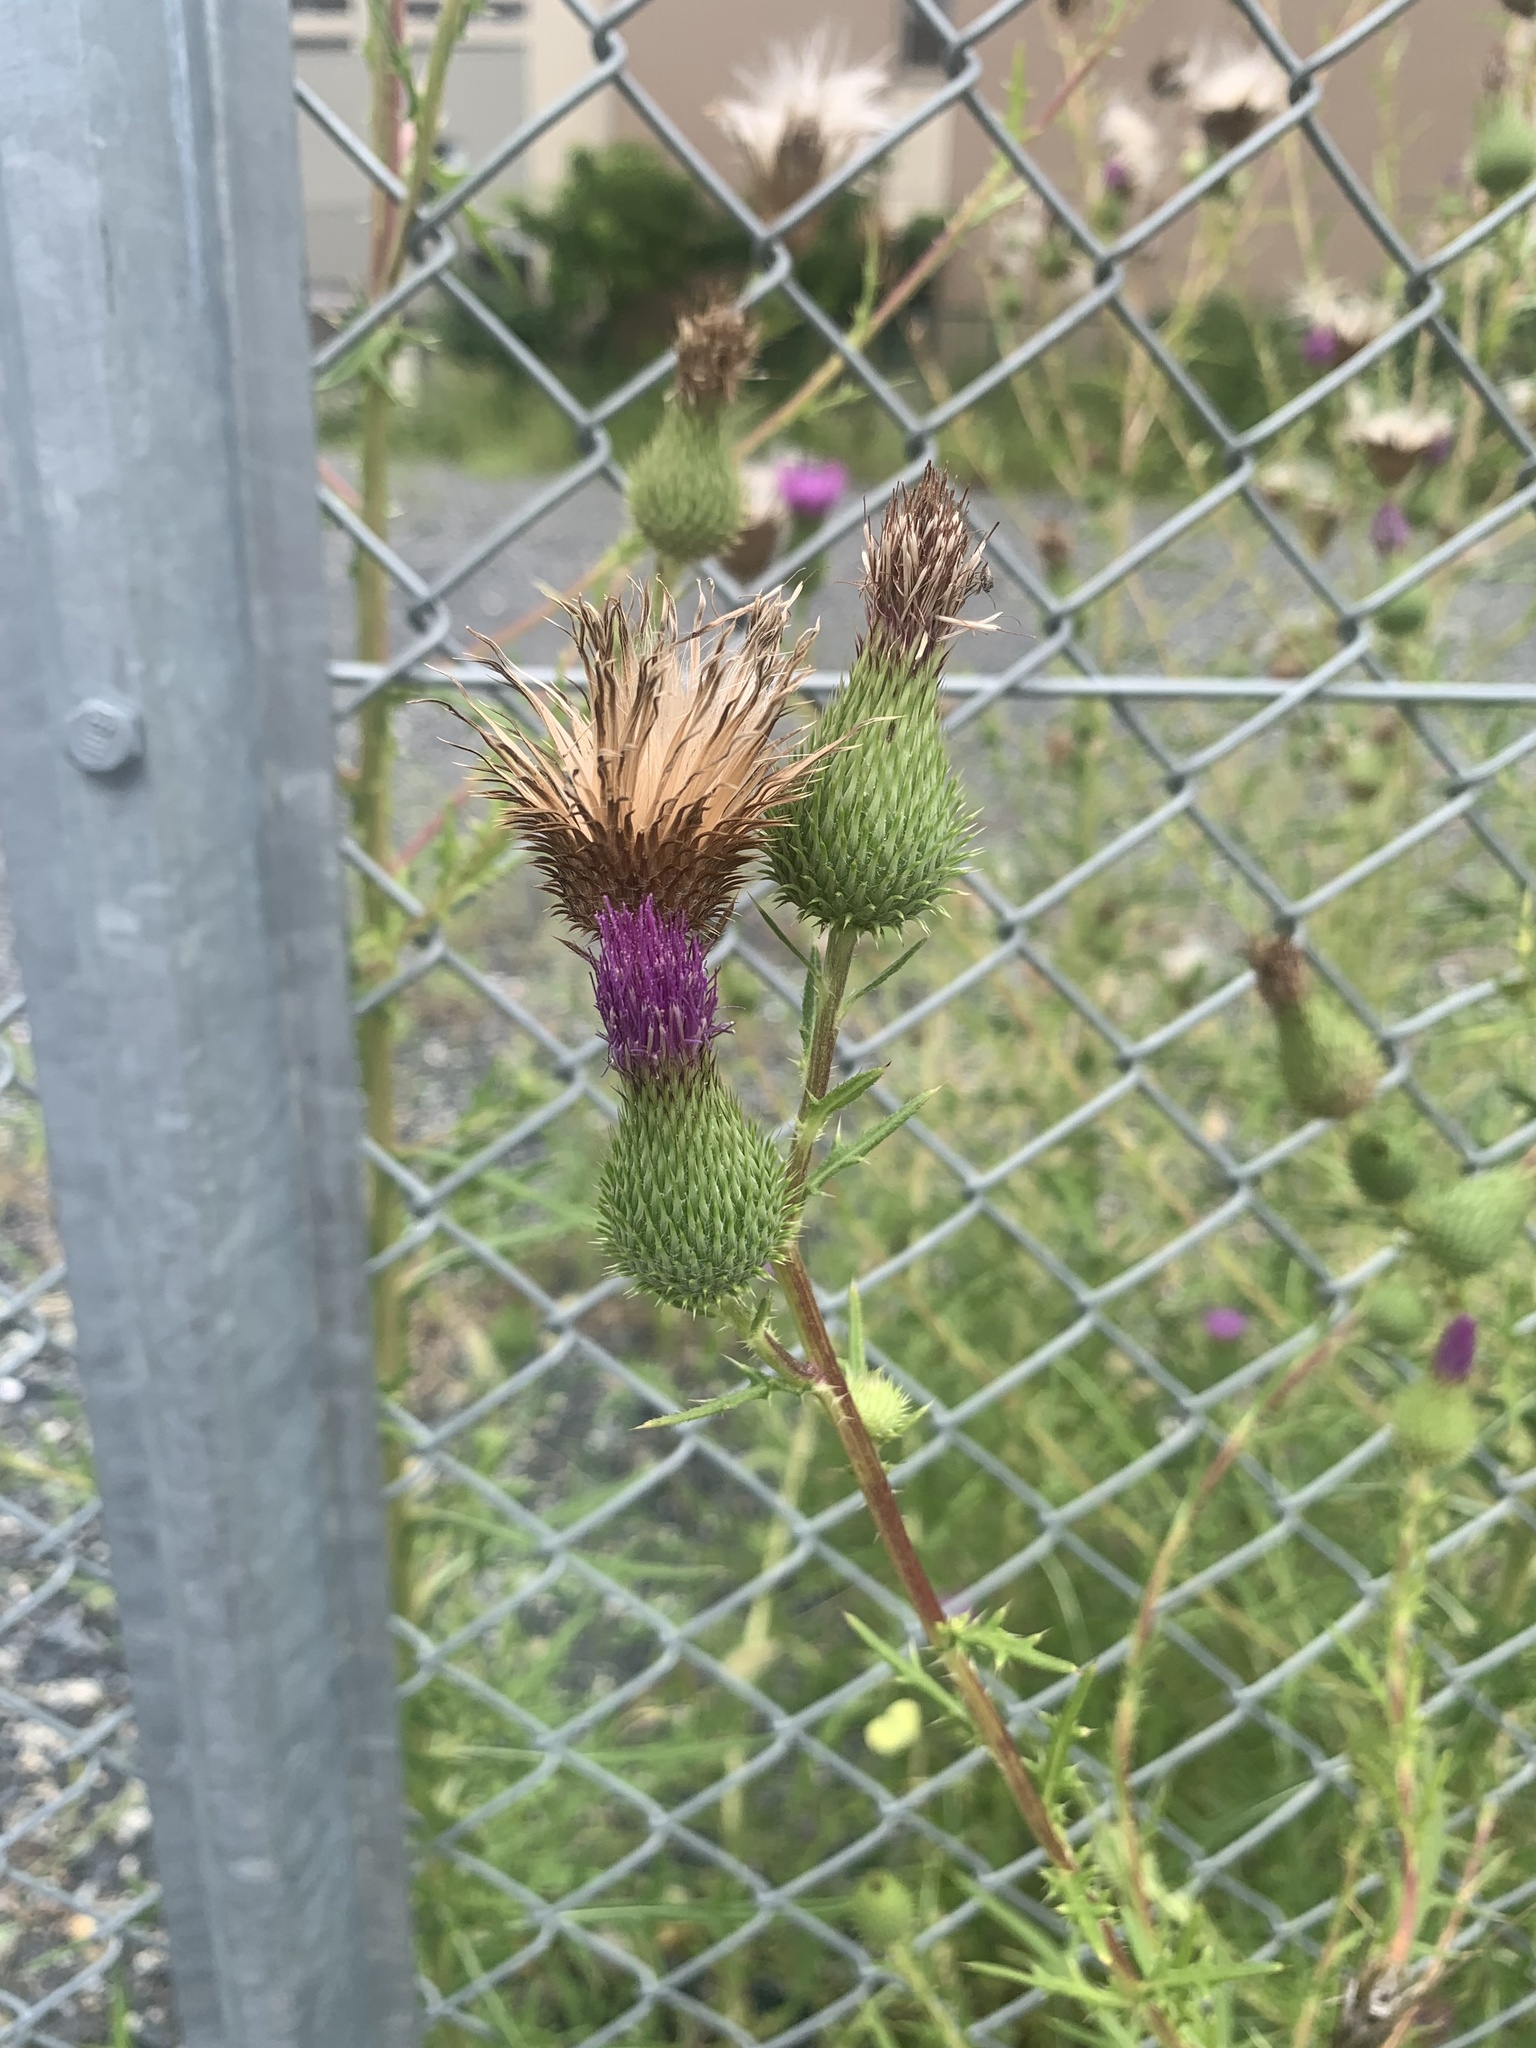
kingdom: Plantae
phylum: Tracheophyta
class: Magnoliopsida
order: Asterales
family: Asteraceae
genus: Cirsium
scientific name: Cirsium vulgare
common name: Bull thistle
